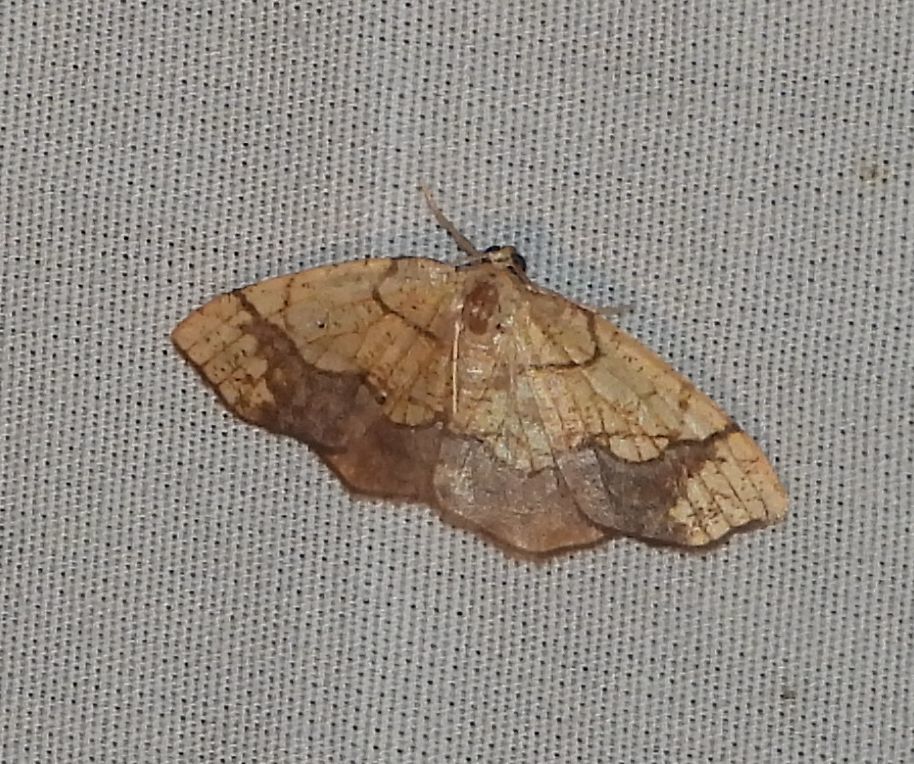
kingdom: Animalia
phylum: Arthropoda
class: Insecta
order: Lepidoptera
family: Geometridae
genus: Nematocampa
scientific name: Nematocampa resistaria
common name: Horned spanworm moth
